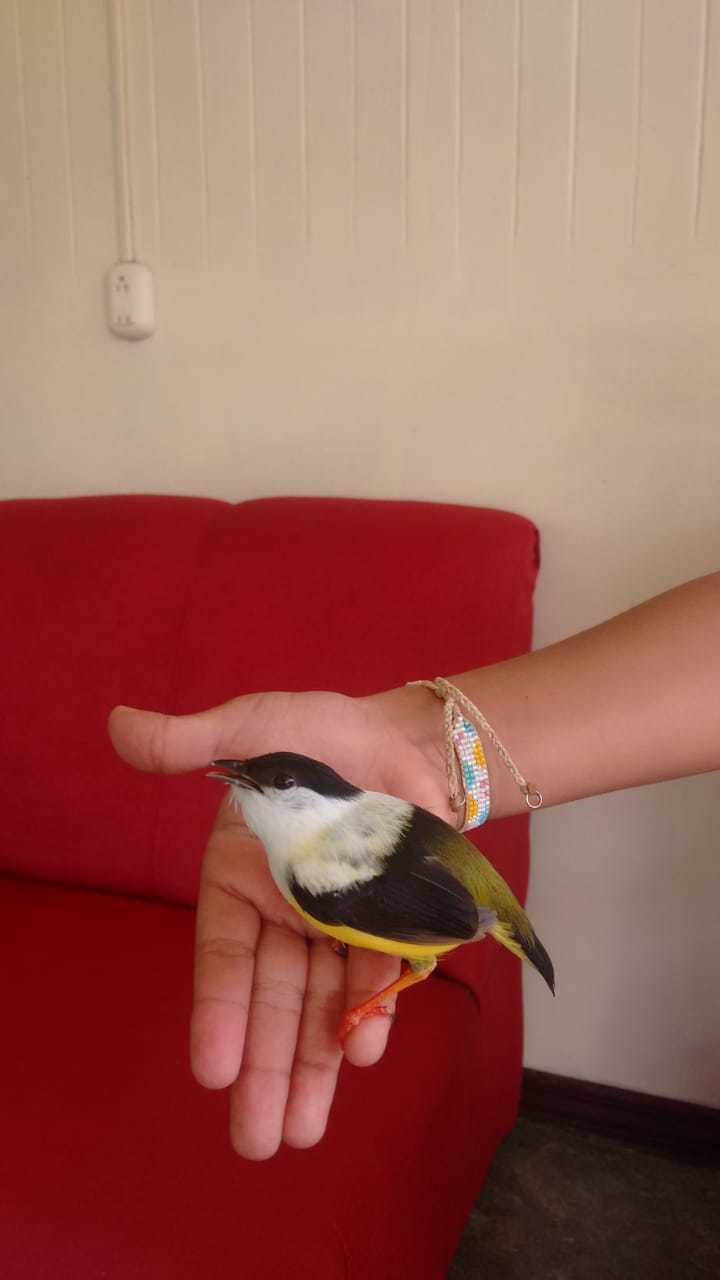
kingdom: Animalia
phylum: Chordata
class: Aves
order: Passeriformes
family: Pipridae
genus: Manacus
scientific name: Manacus candei
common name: White-collared manakin
